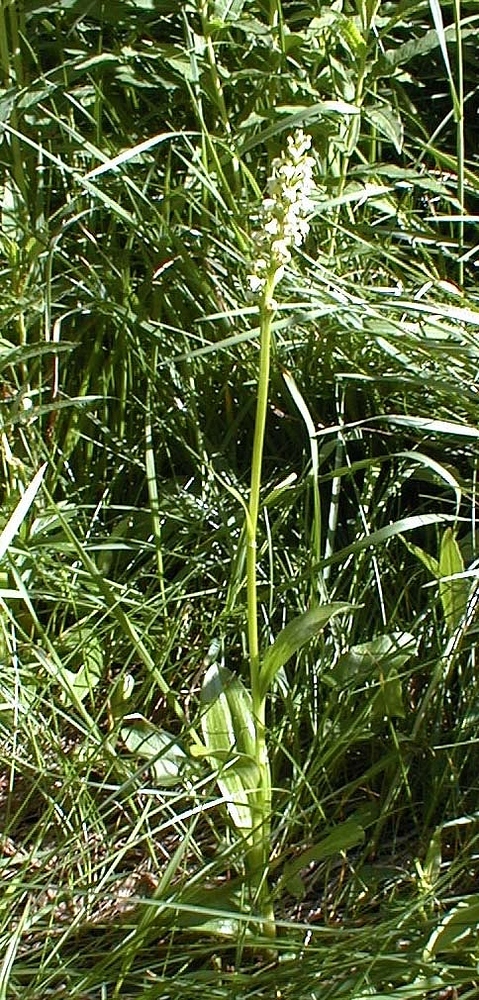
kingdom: Plantae
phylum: Tracheophyta
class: Liliopsida
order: Asparagales
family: Orchidaceae
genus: Pseudorchis
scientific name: Pseudorchis albida
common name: Small-white orchid
